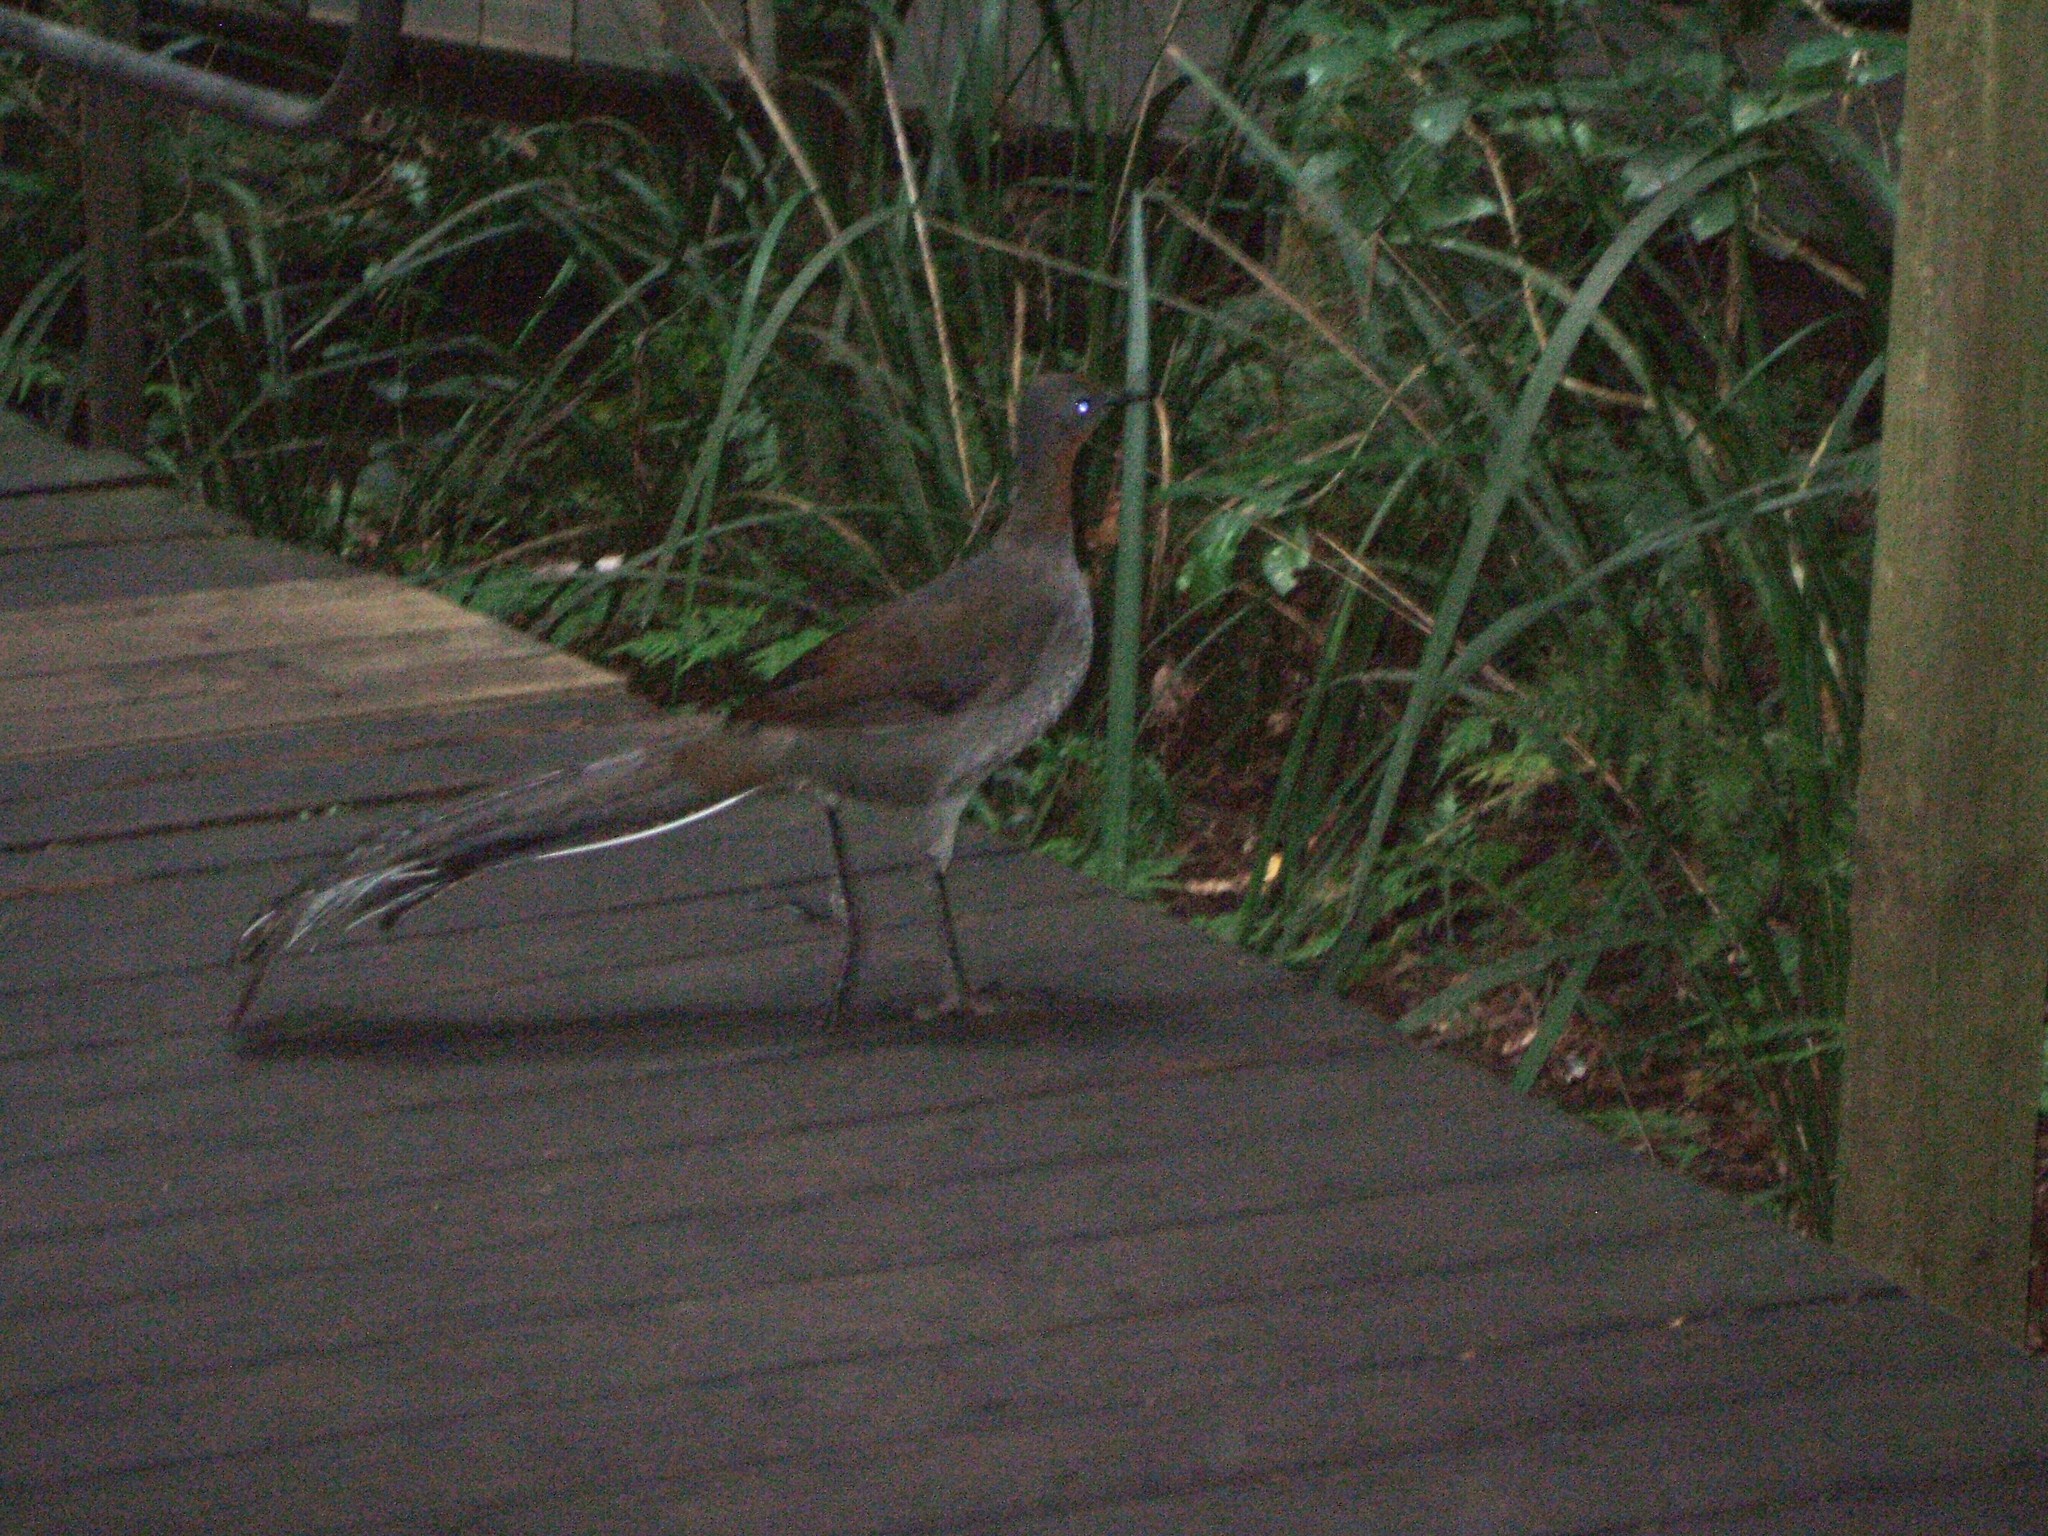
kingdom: Animalia
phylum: Chordata
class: Aves
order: Passeriformes
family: Menuridae
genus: Menura
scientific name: Menura novaehollandiae
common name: Superb lyrebird
